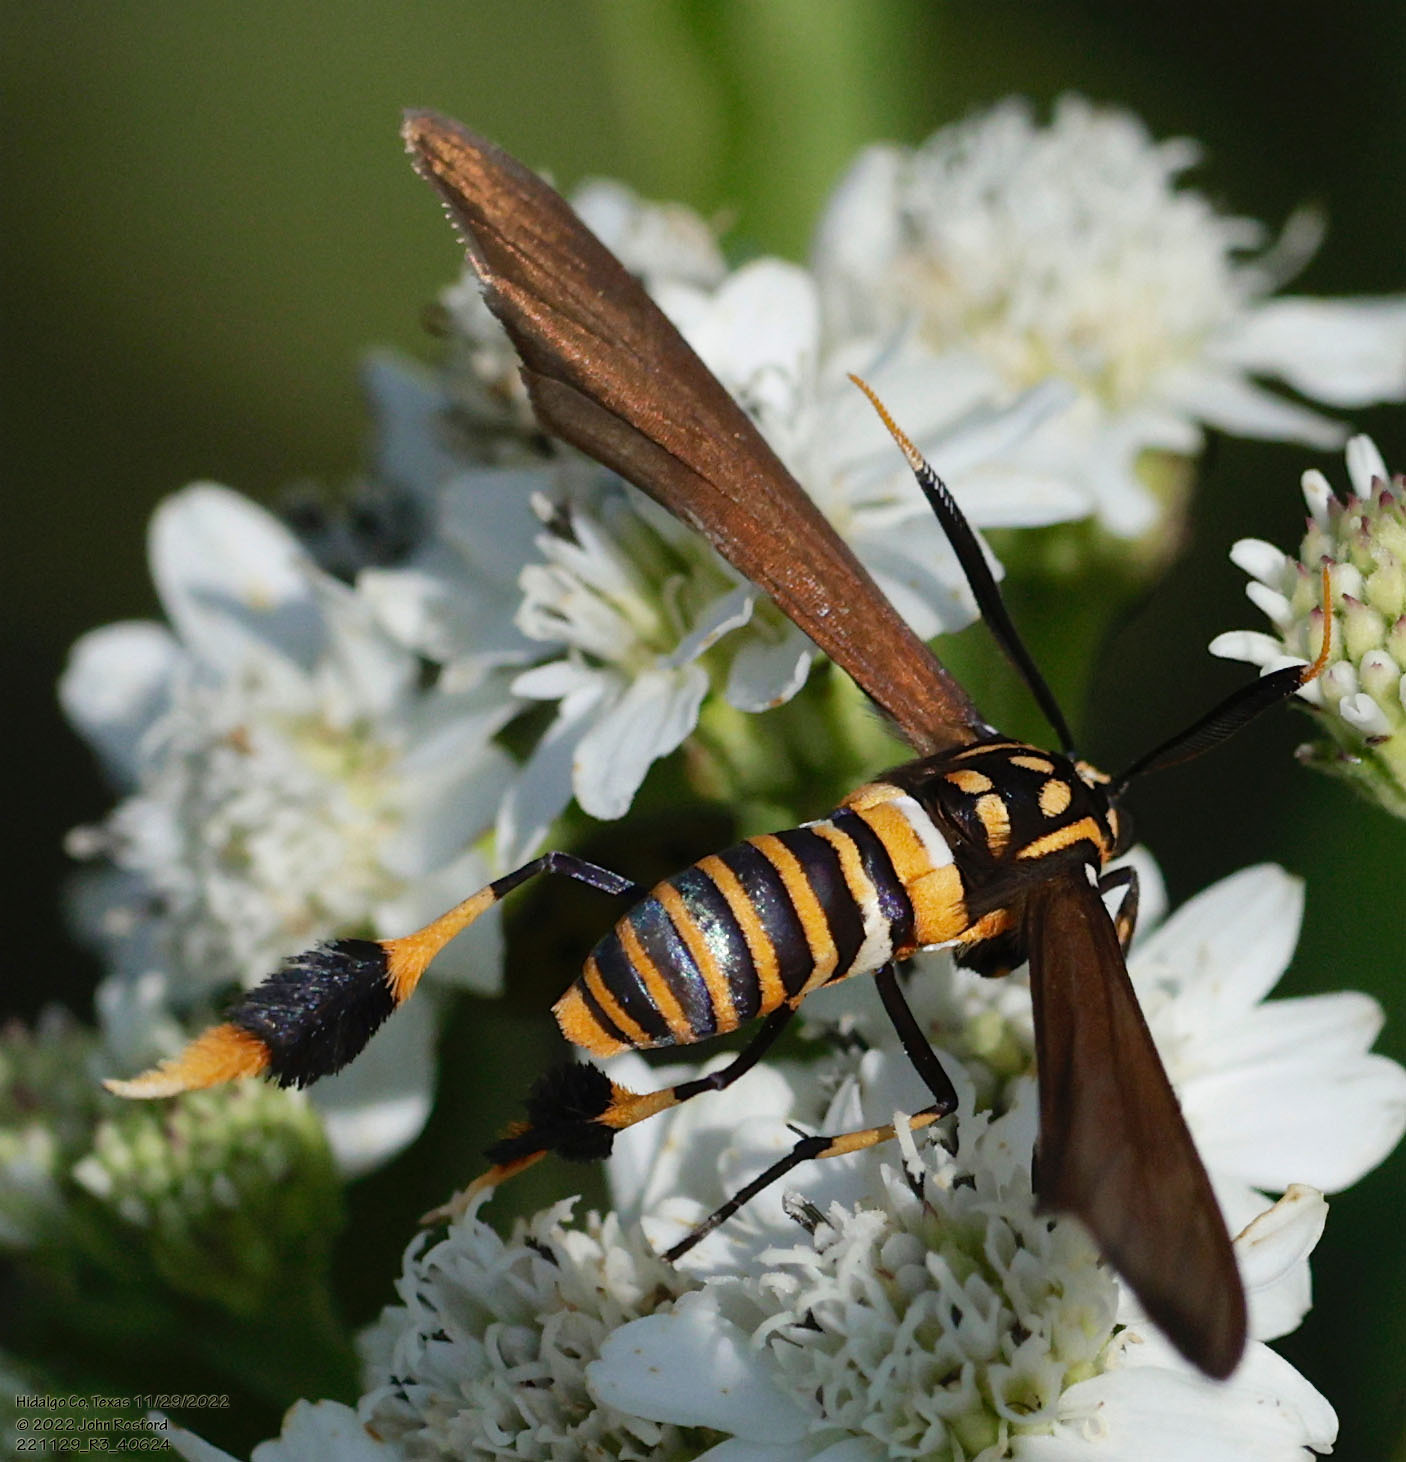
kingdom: Animalia
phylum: Arthropoda
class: Insecta
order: Lepidoptera
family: Erebidae
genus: Horama
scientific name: Horama panthalon
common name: Texas wasp moth
